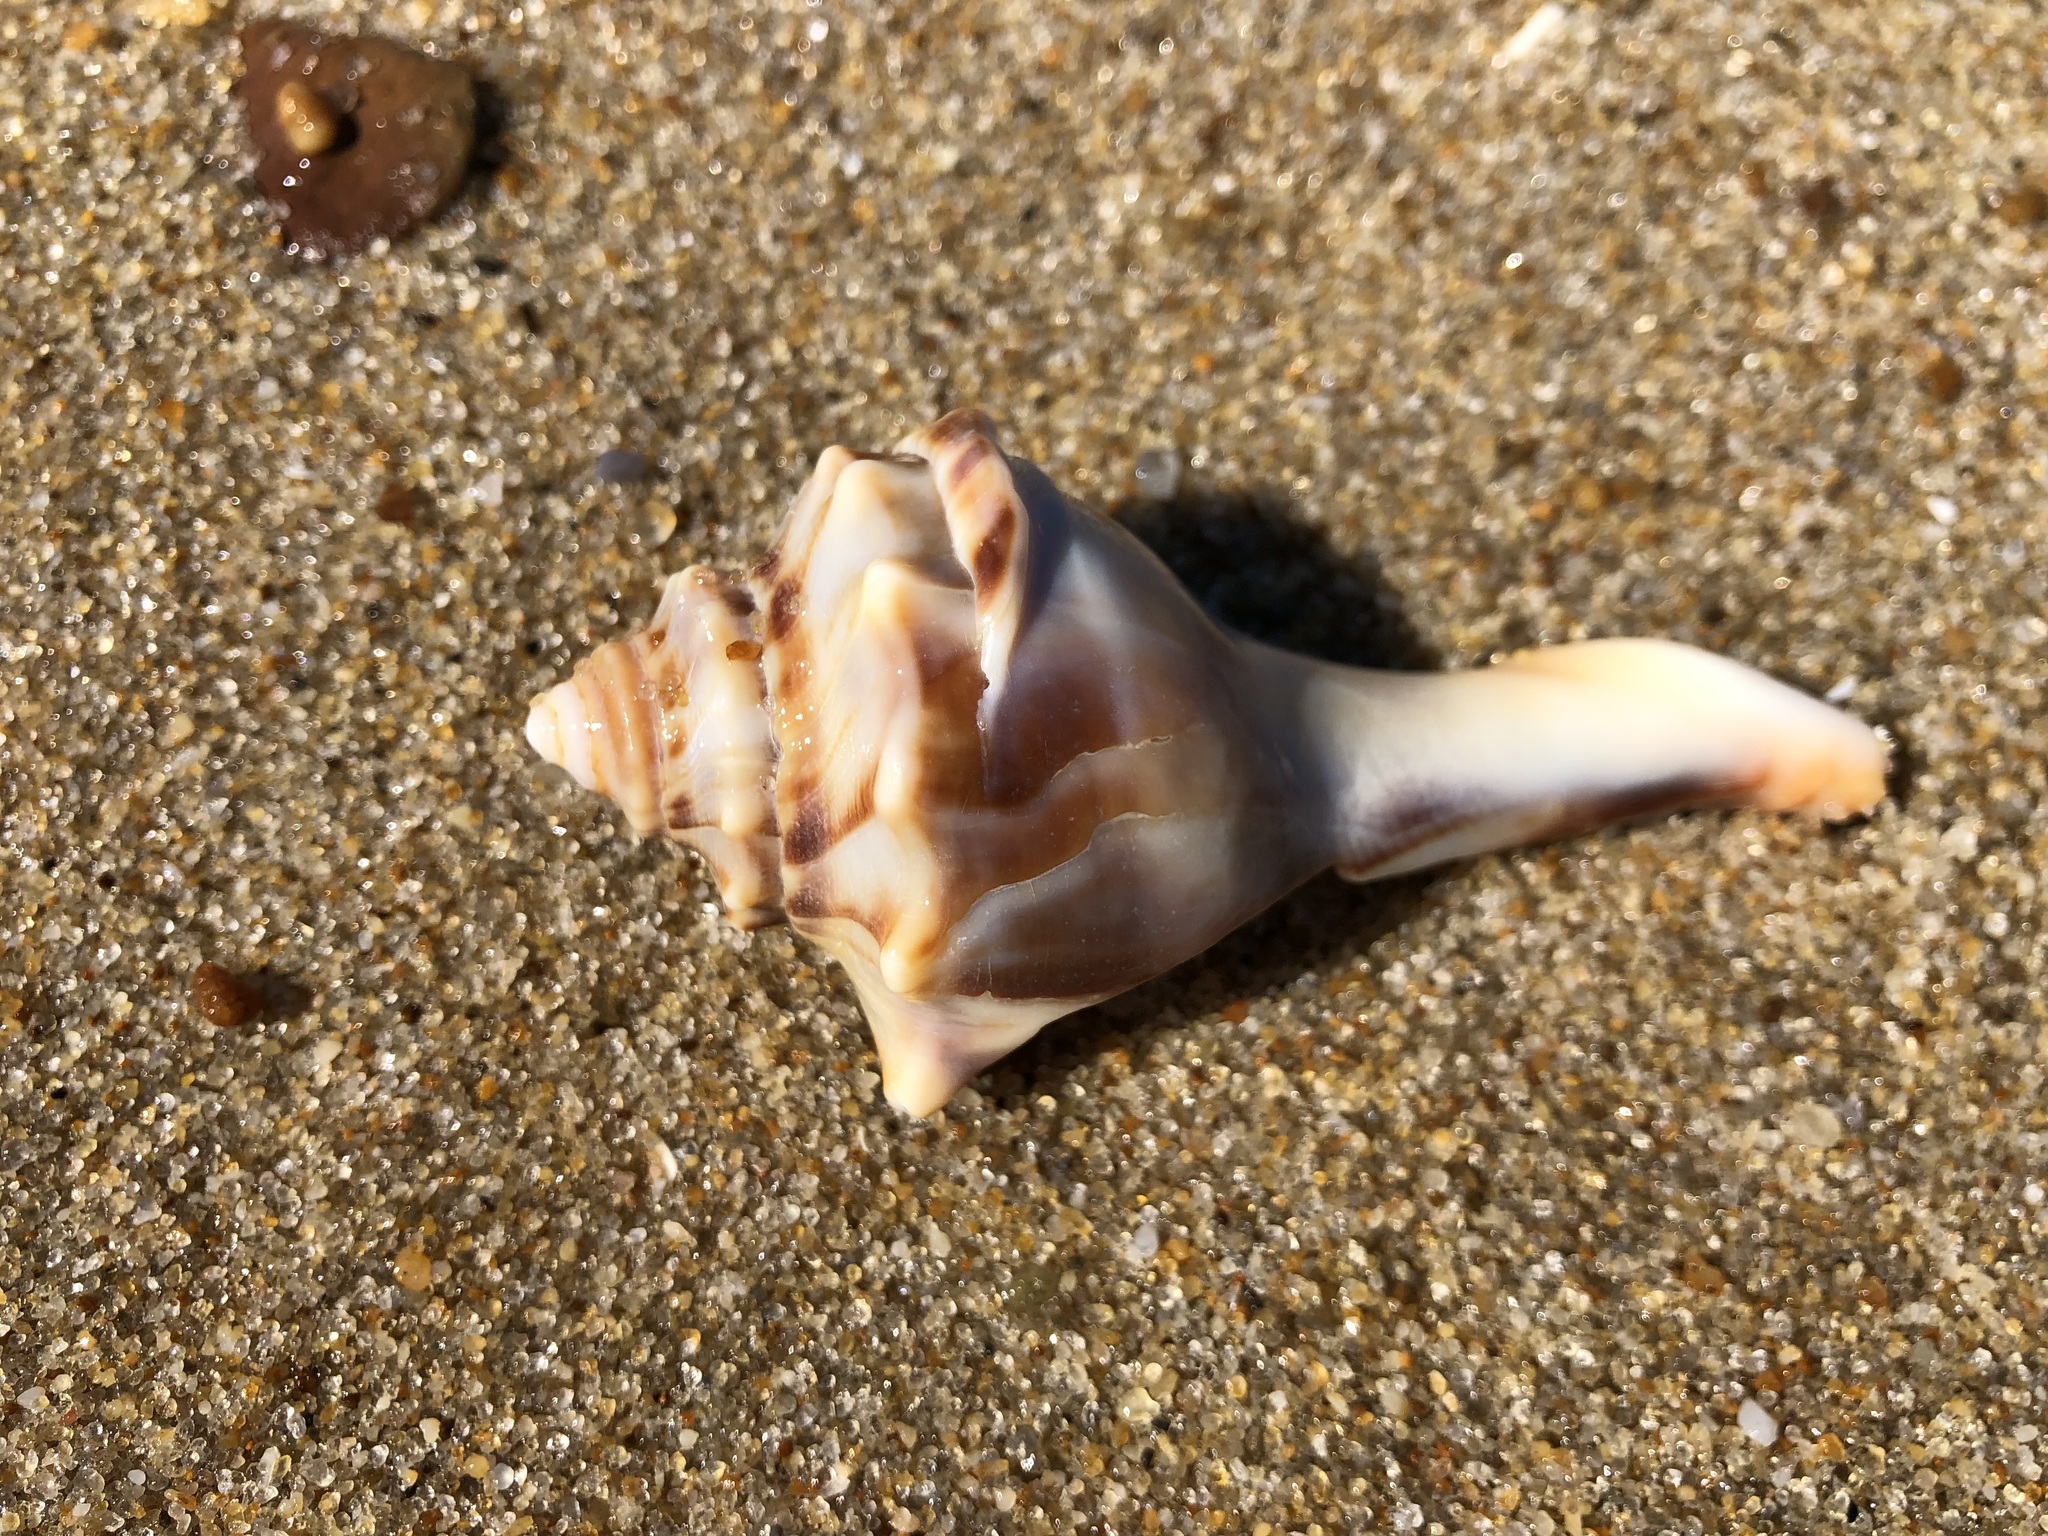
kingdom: Animalia
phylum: Mollusca
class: Gastropoda
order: Neogastropoda
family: Busyconidae
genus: Busycon
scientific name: Busycon carica
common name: Knobbed whelk
